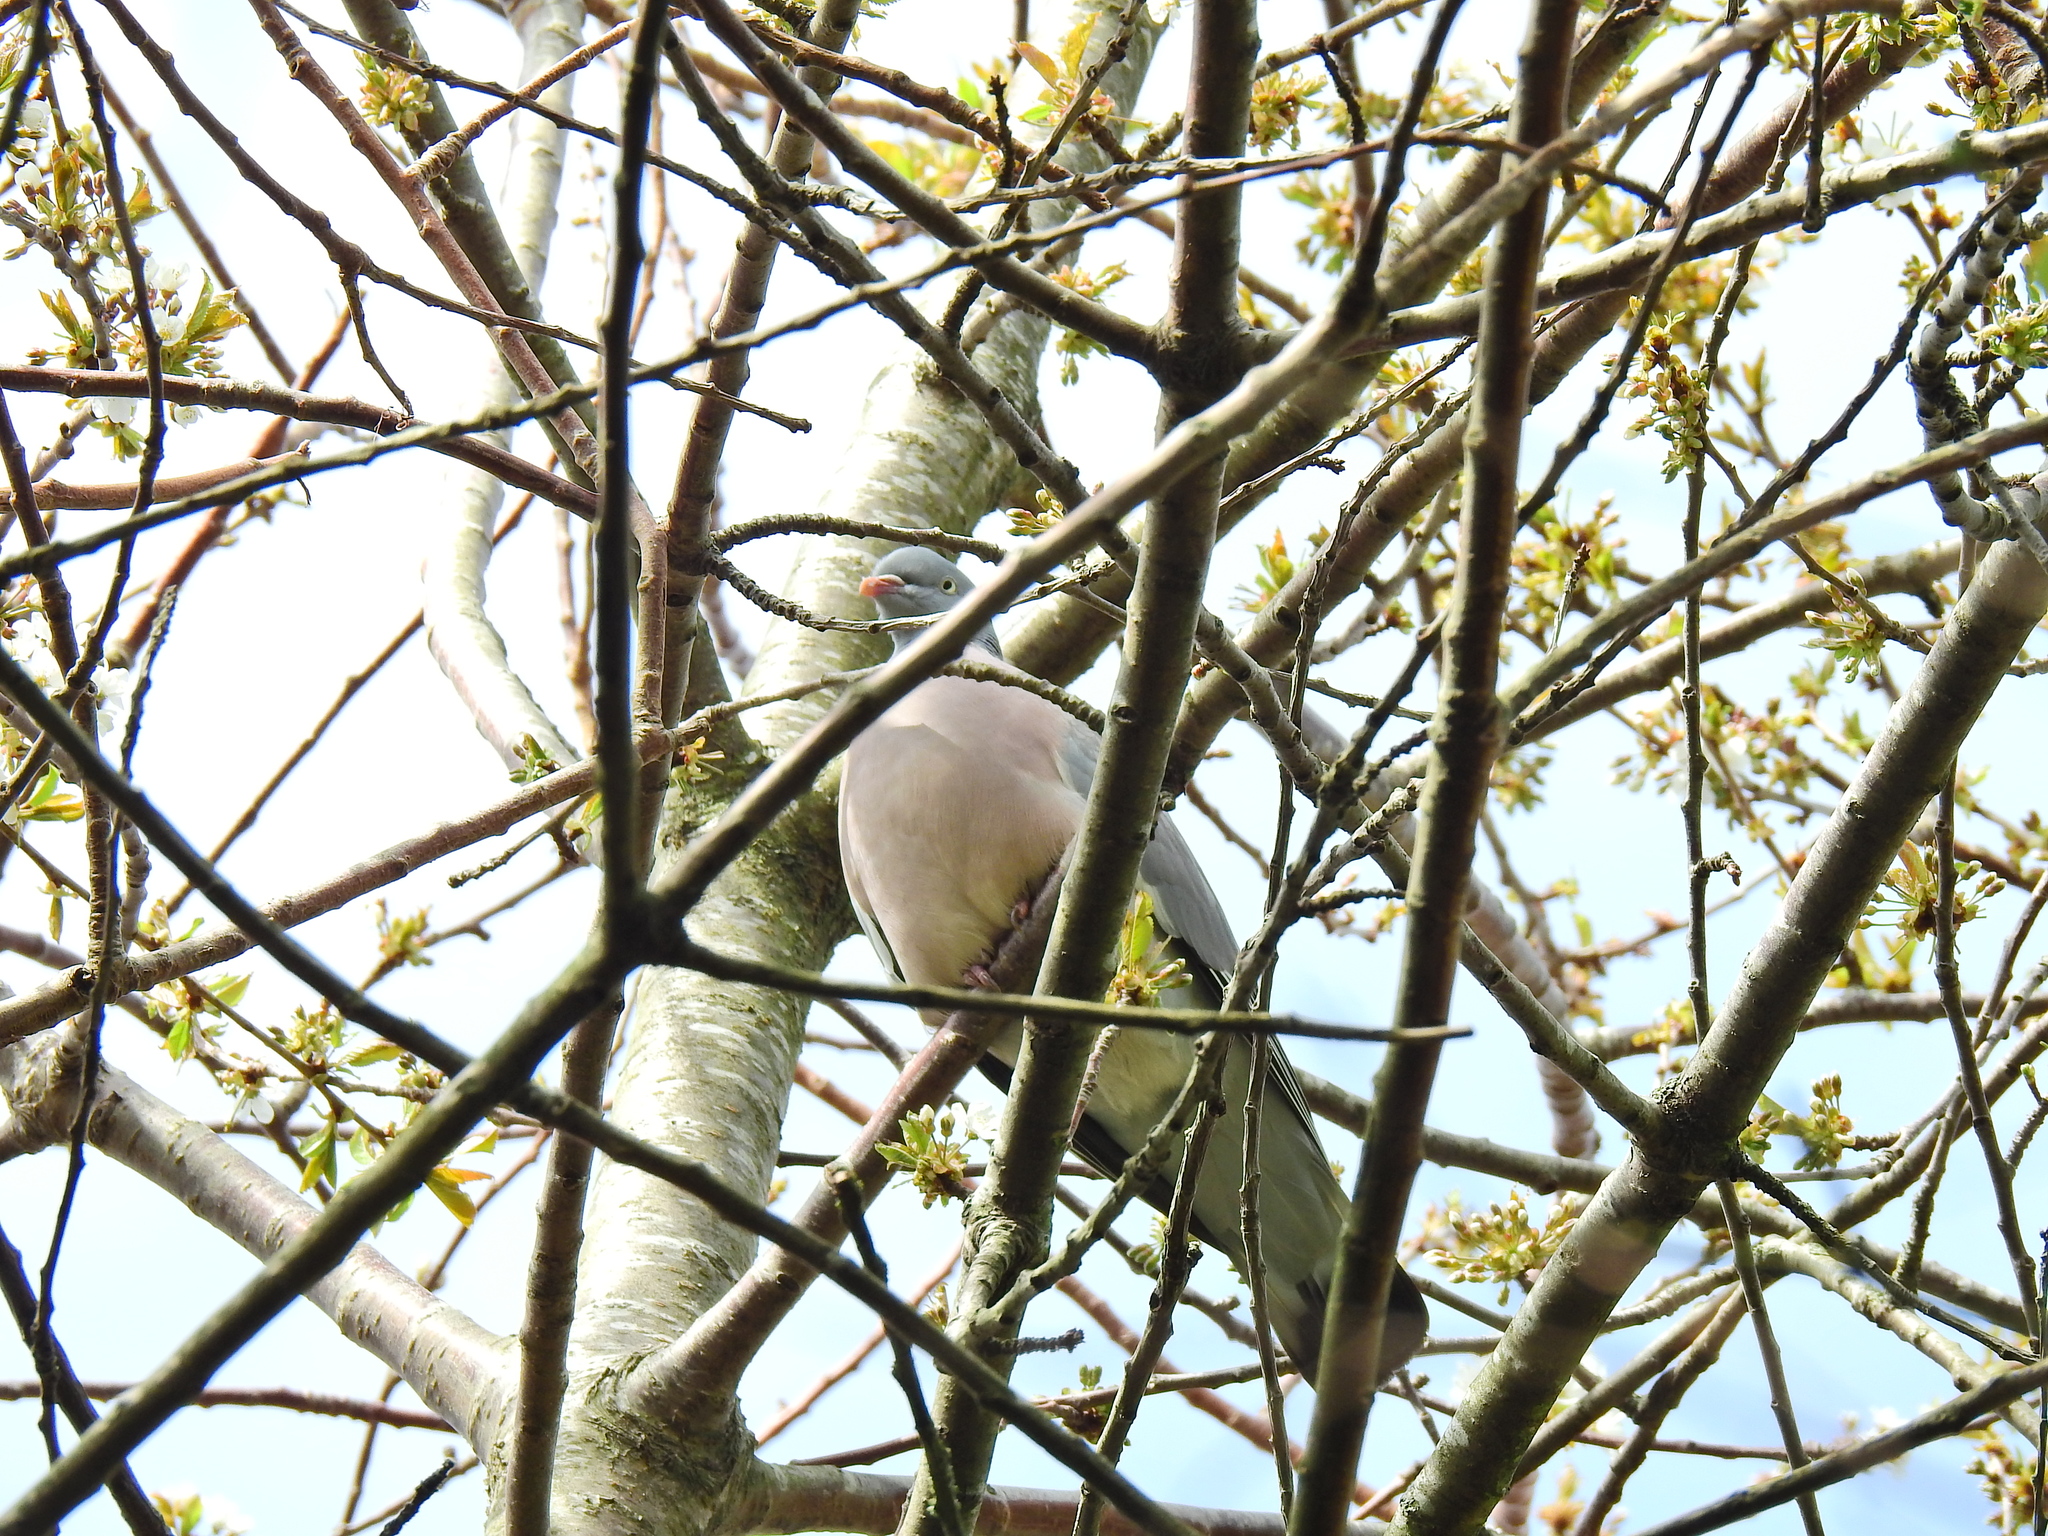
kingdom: Animalia
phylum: Chordata
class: Aves
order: Columbiformes
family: Columbidae
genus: Columba
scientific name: Columba palumbus
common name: Common wood pigeon
